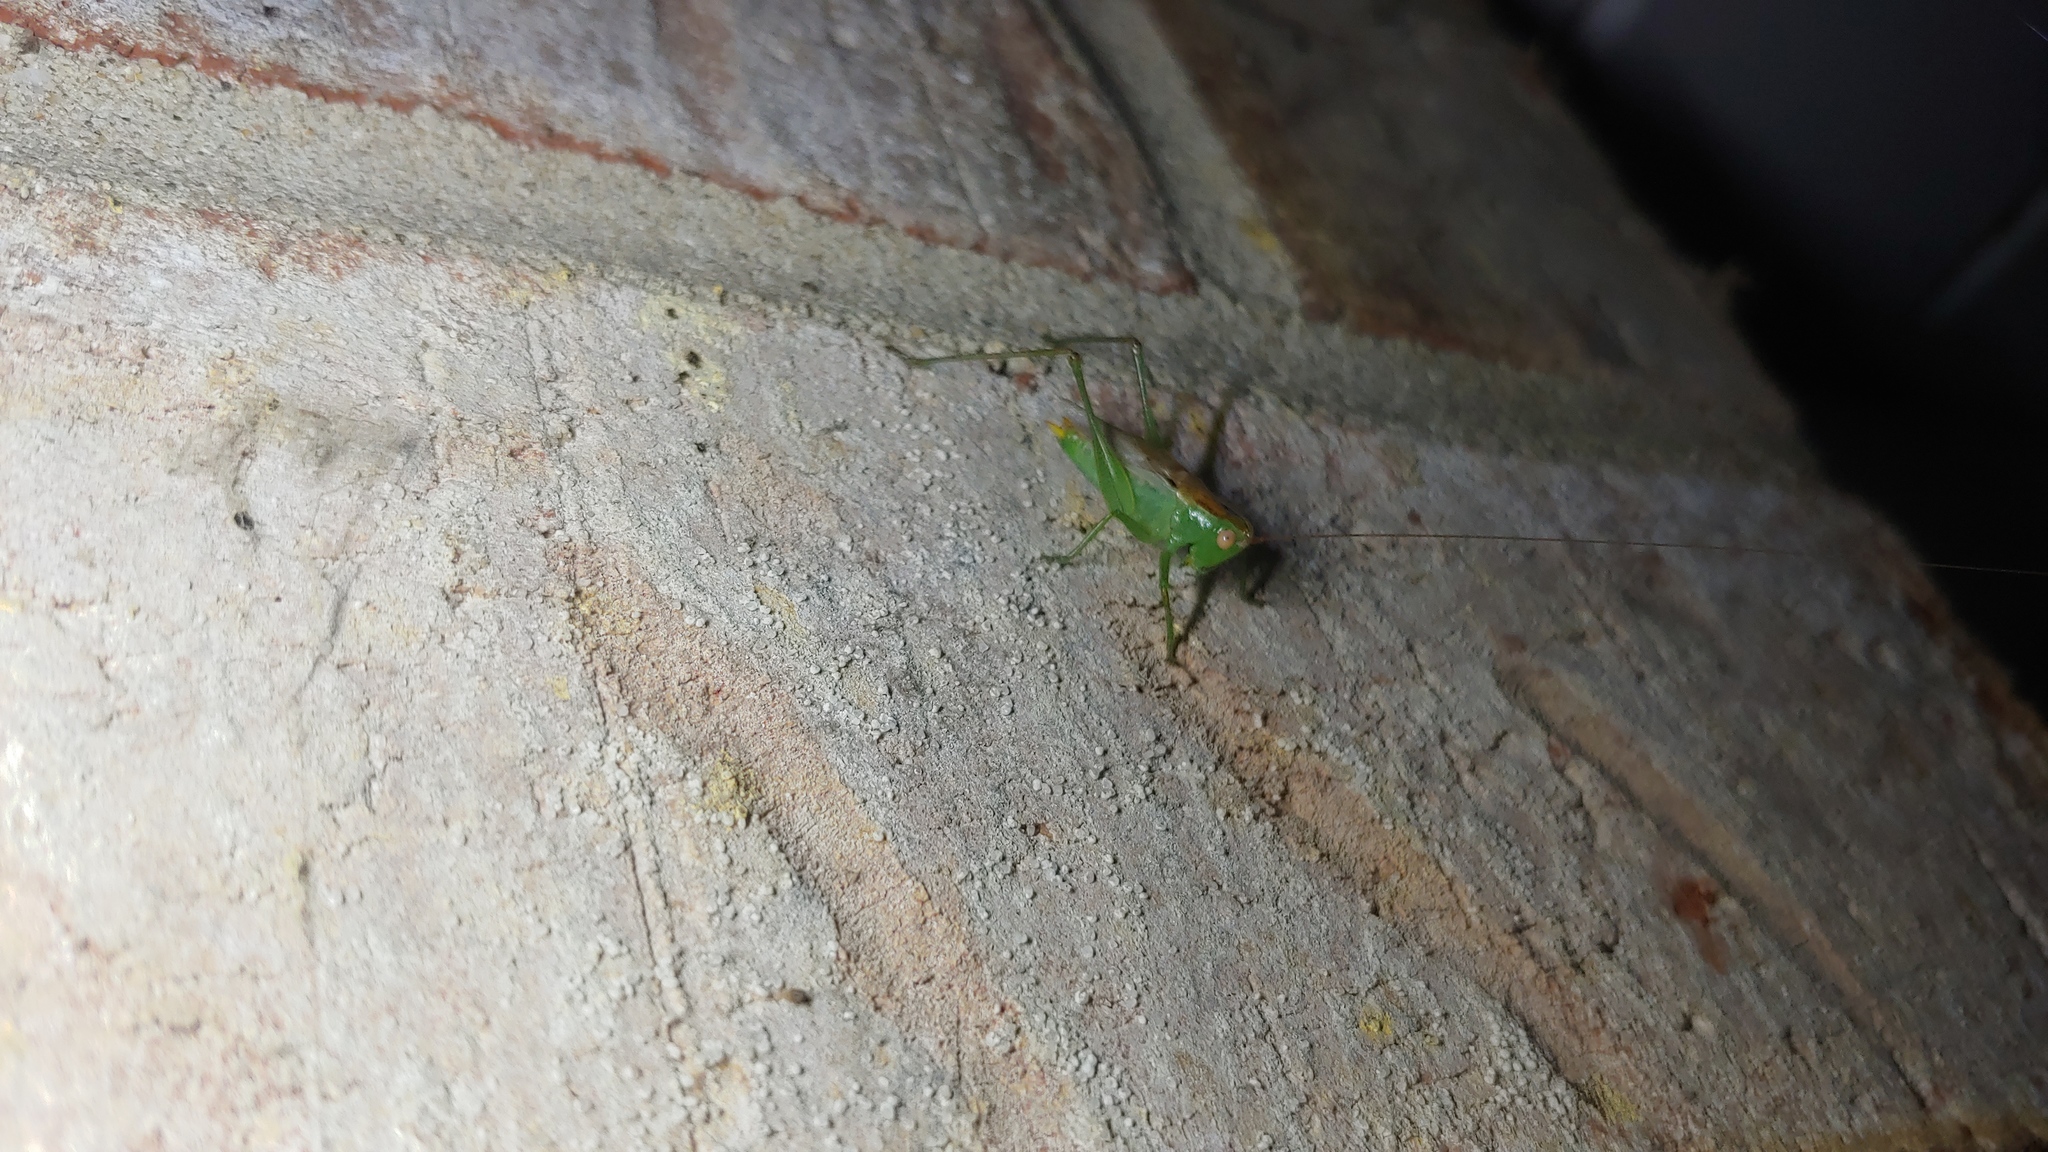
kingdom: Animalia
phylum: Arthropoda
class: Insecta
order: Orthoptera
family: Tettigoniidae
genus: Conocephalus
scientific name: Conocephalus brevipennis
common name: Short-winged meadow katydid
